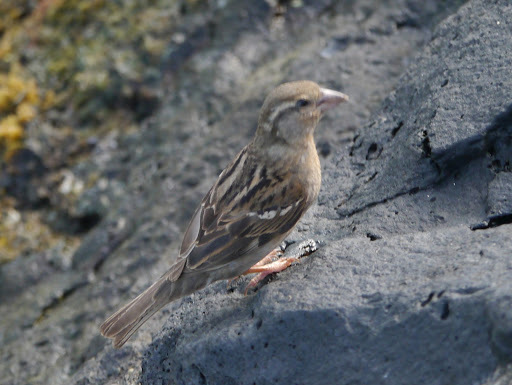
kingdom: Animalia
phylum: Chordata
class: Aves
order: Passeriformes
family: Passeridae
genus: Passer
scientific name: Passer domesticus
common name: House sparrow
